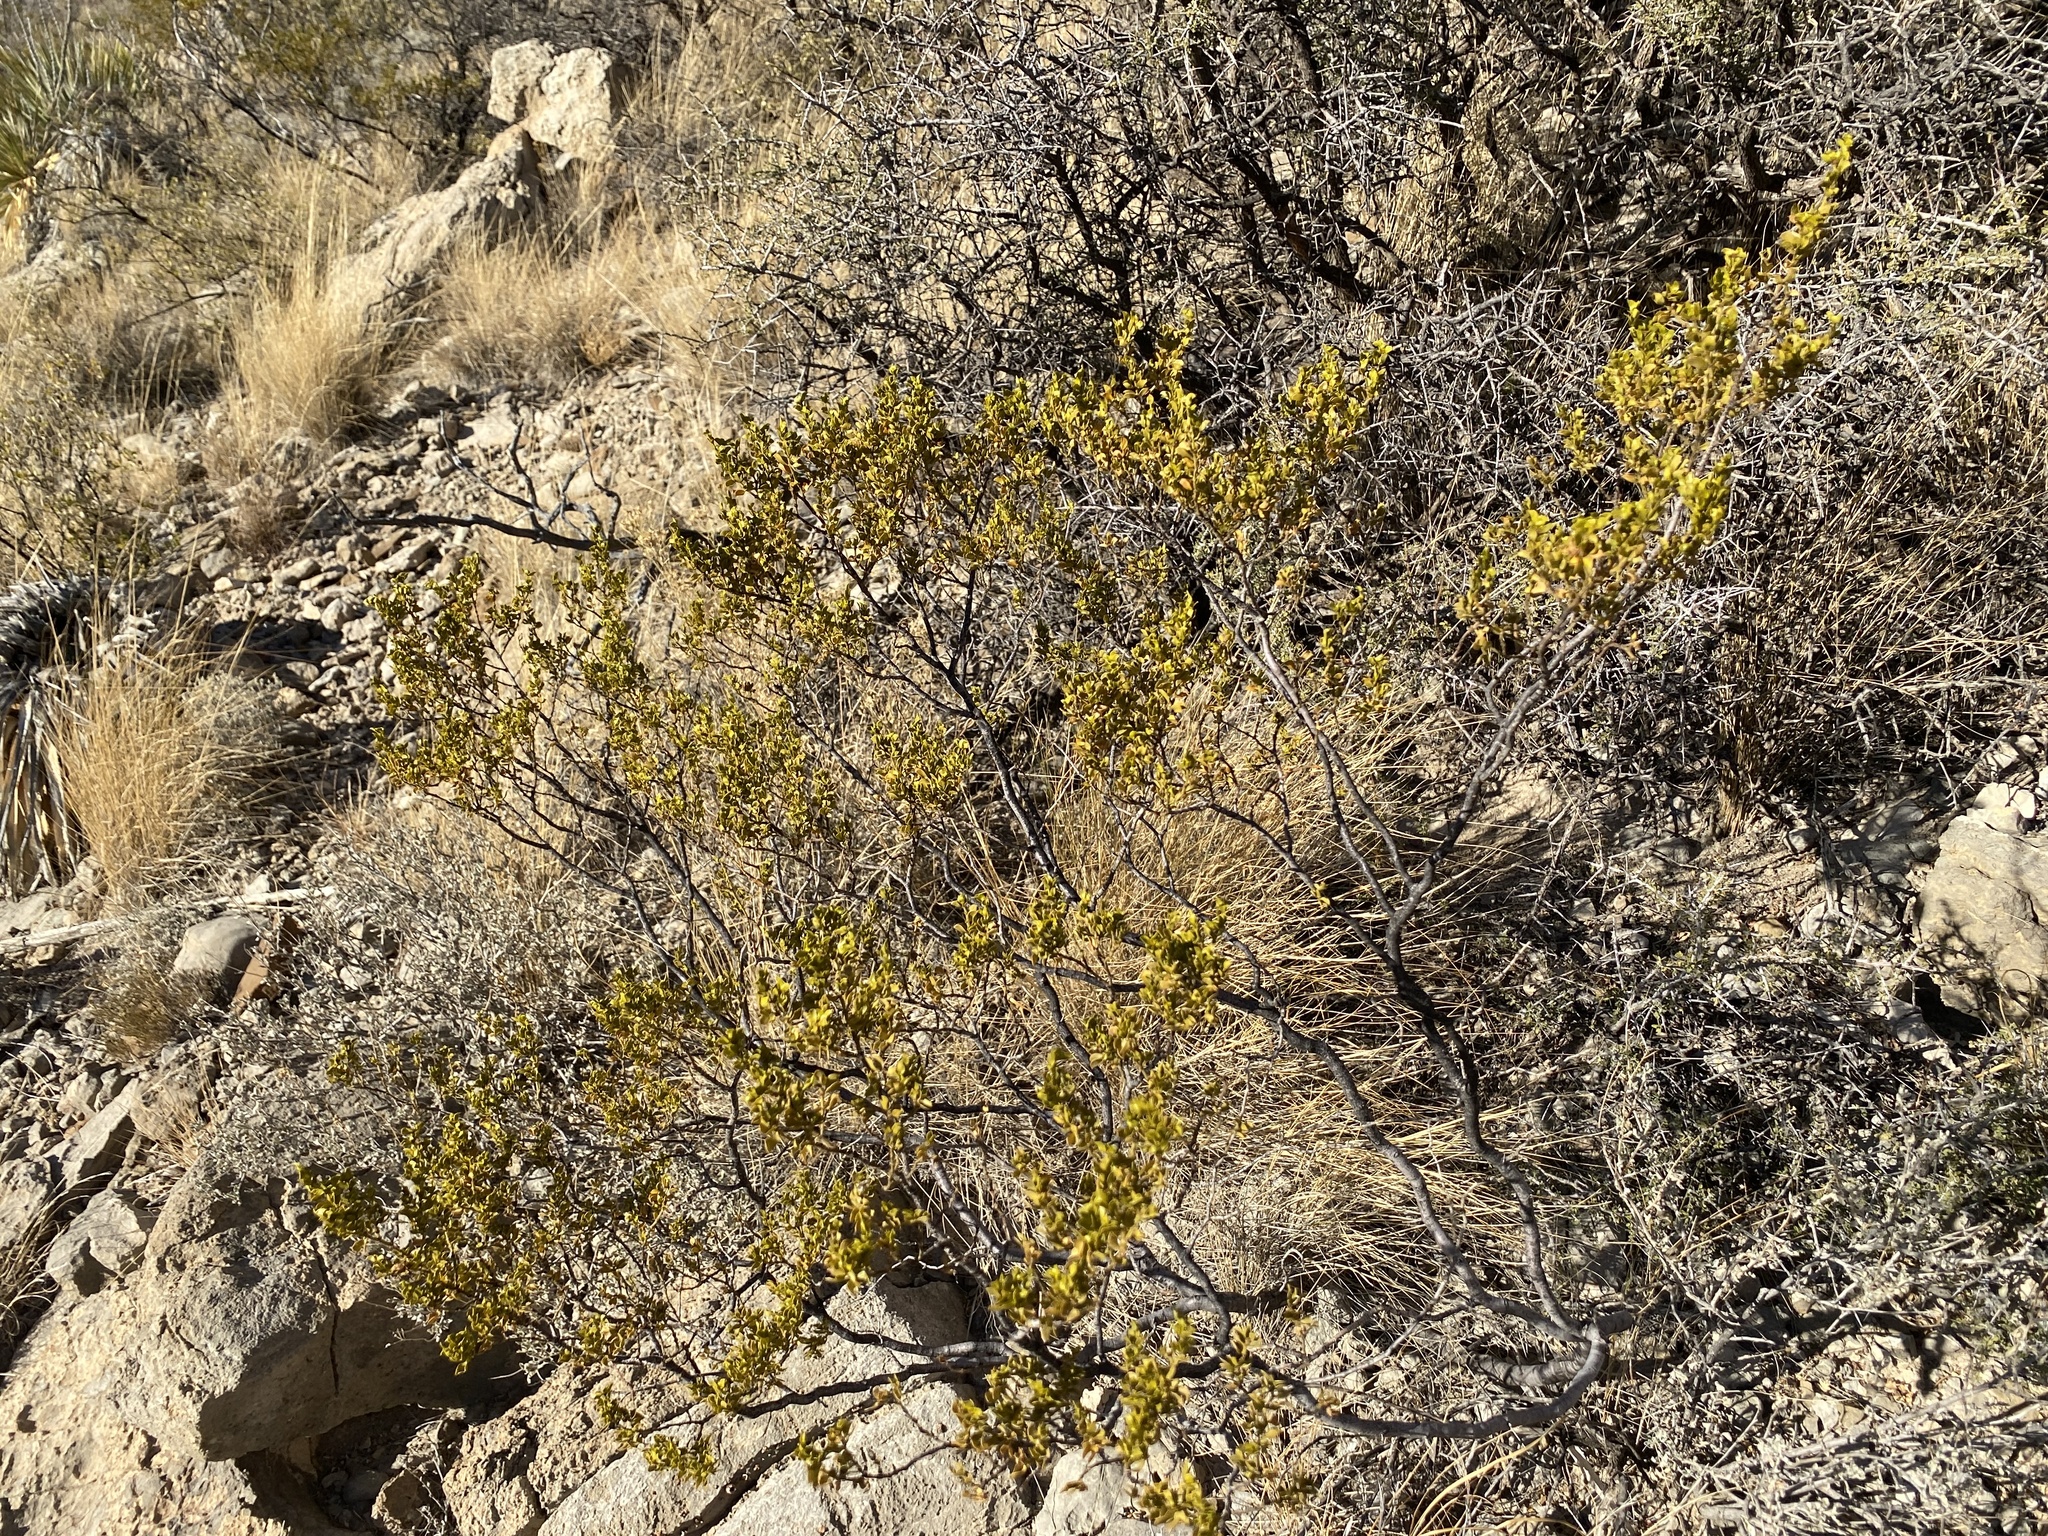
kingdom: Plantae
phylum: Tracheophyta
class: Magnoliopsida
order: Zygophyllales
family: Zygophyllaceae
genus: Larrea
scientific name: Larrea tridentata
